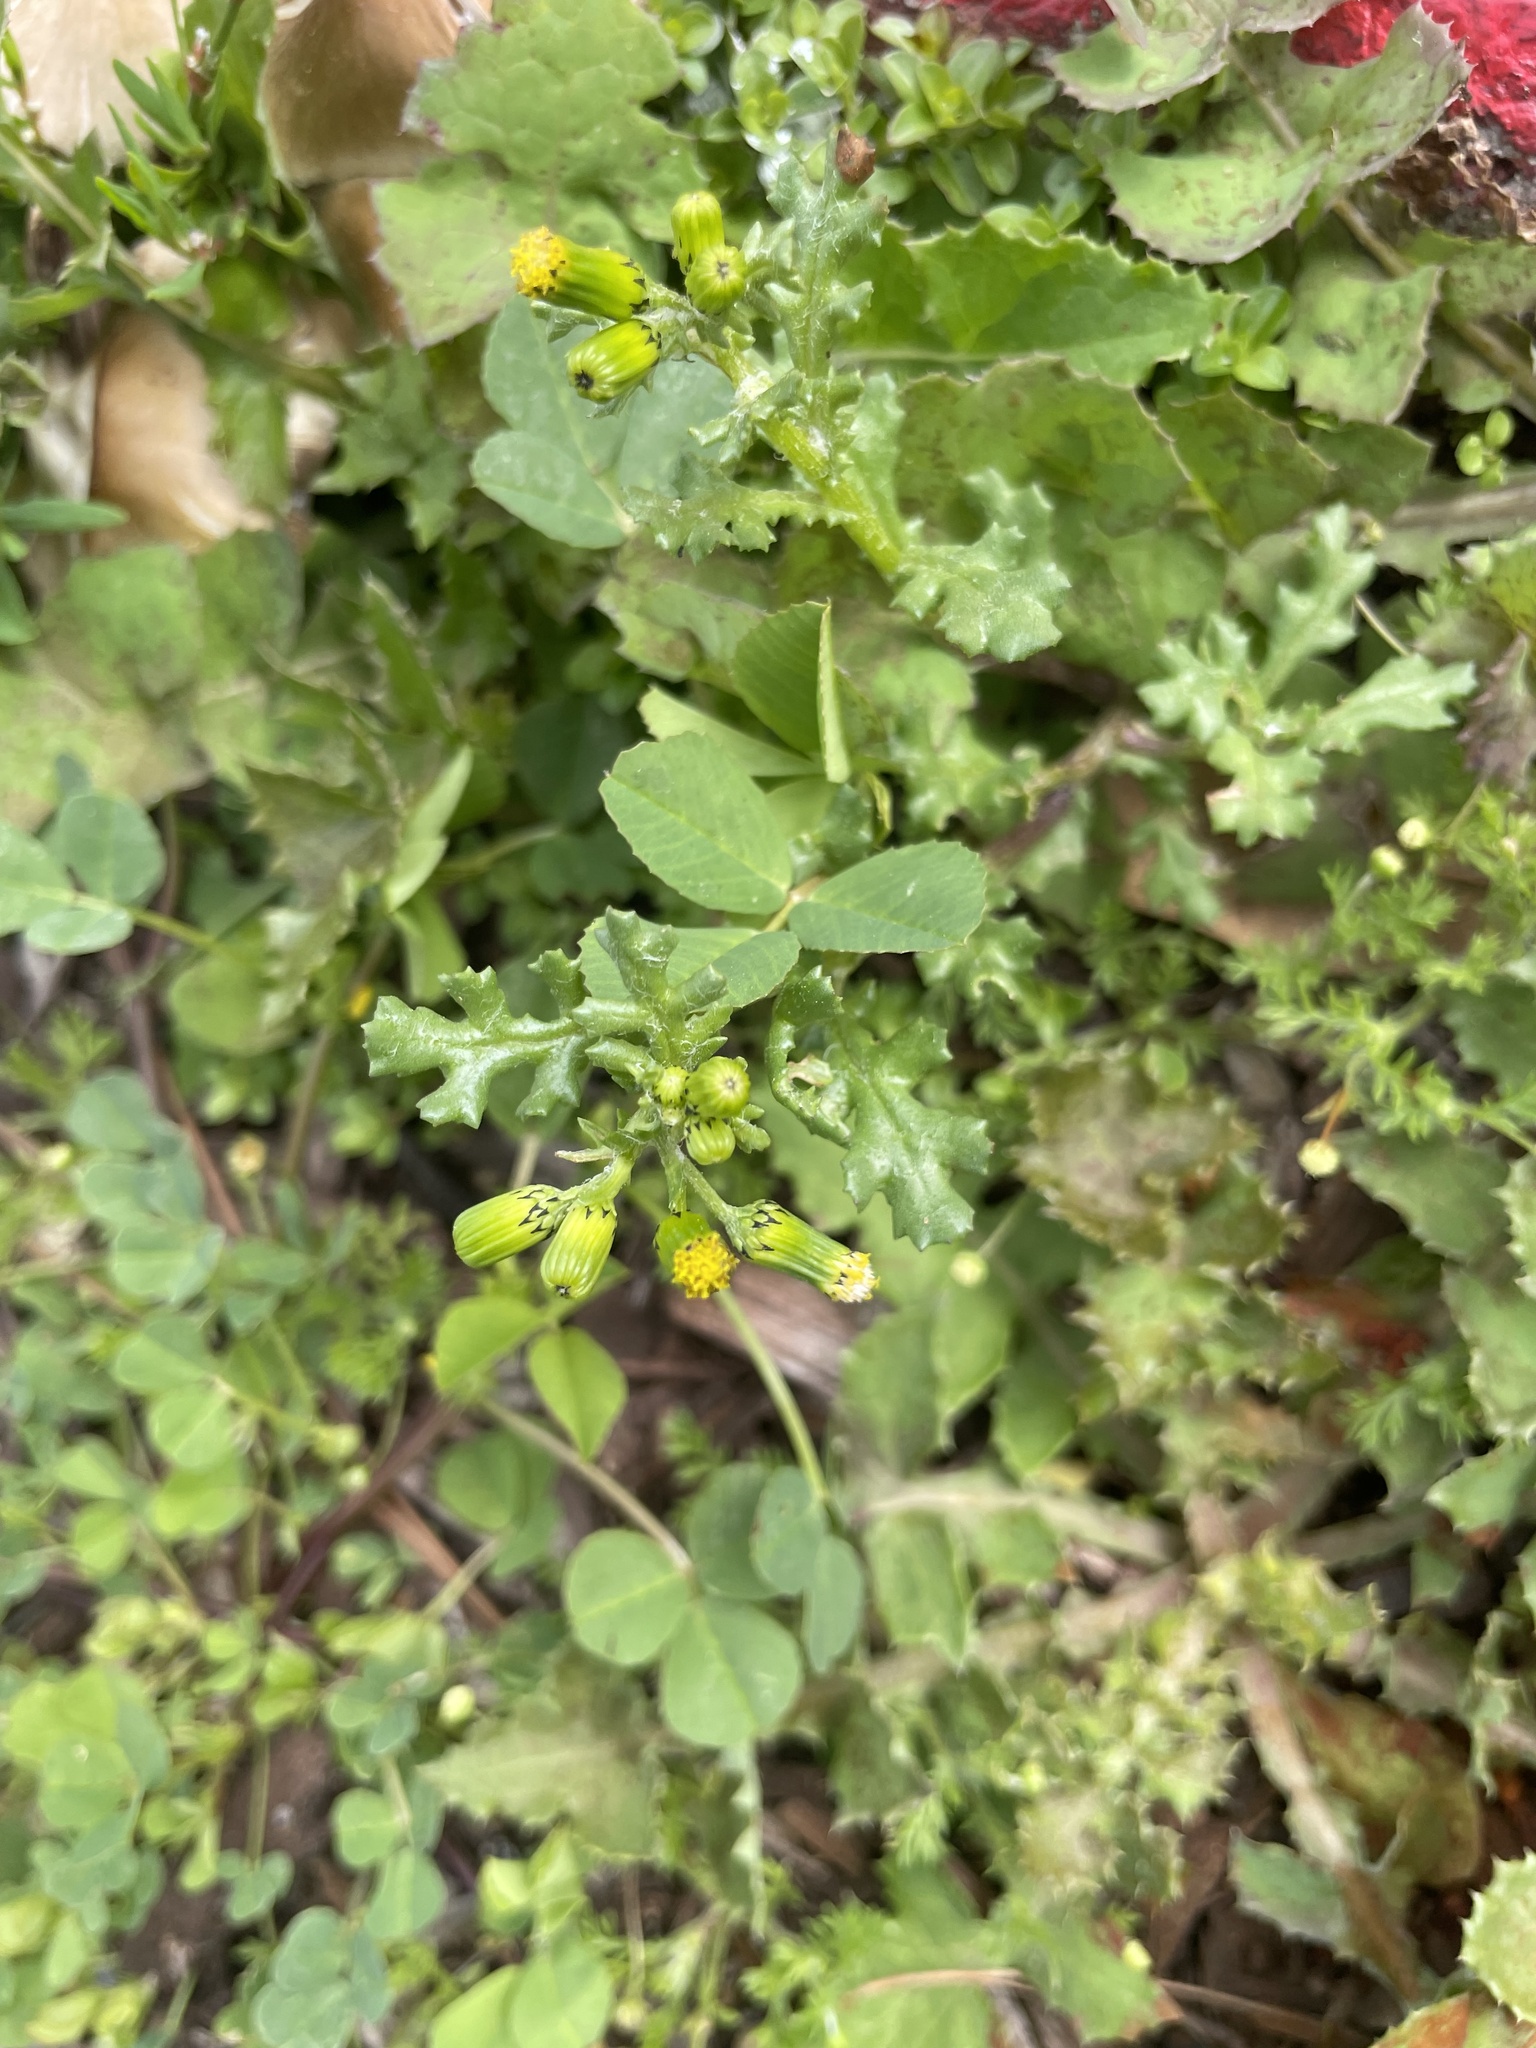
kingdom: Plantae
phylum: Tracheophyta
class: Magnoliopsida
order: Asterales
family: Asteraceae
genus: Senecio
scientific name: Senecio vulgaris
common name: Old-man-in-the-spring
